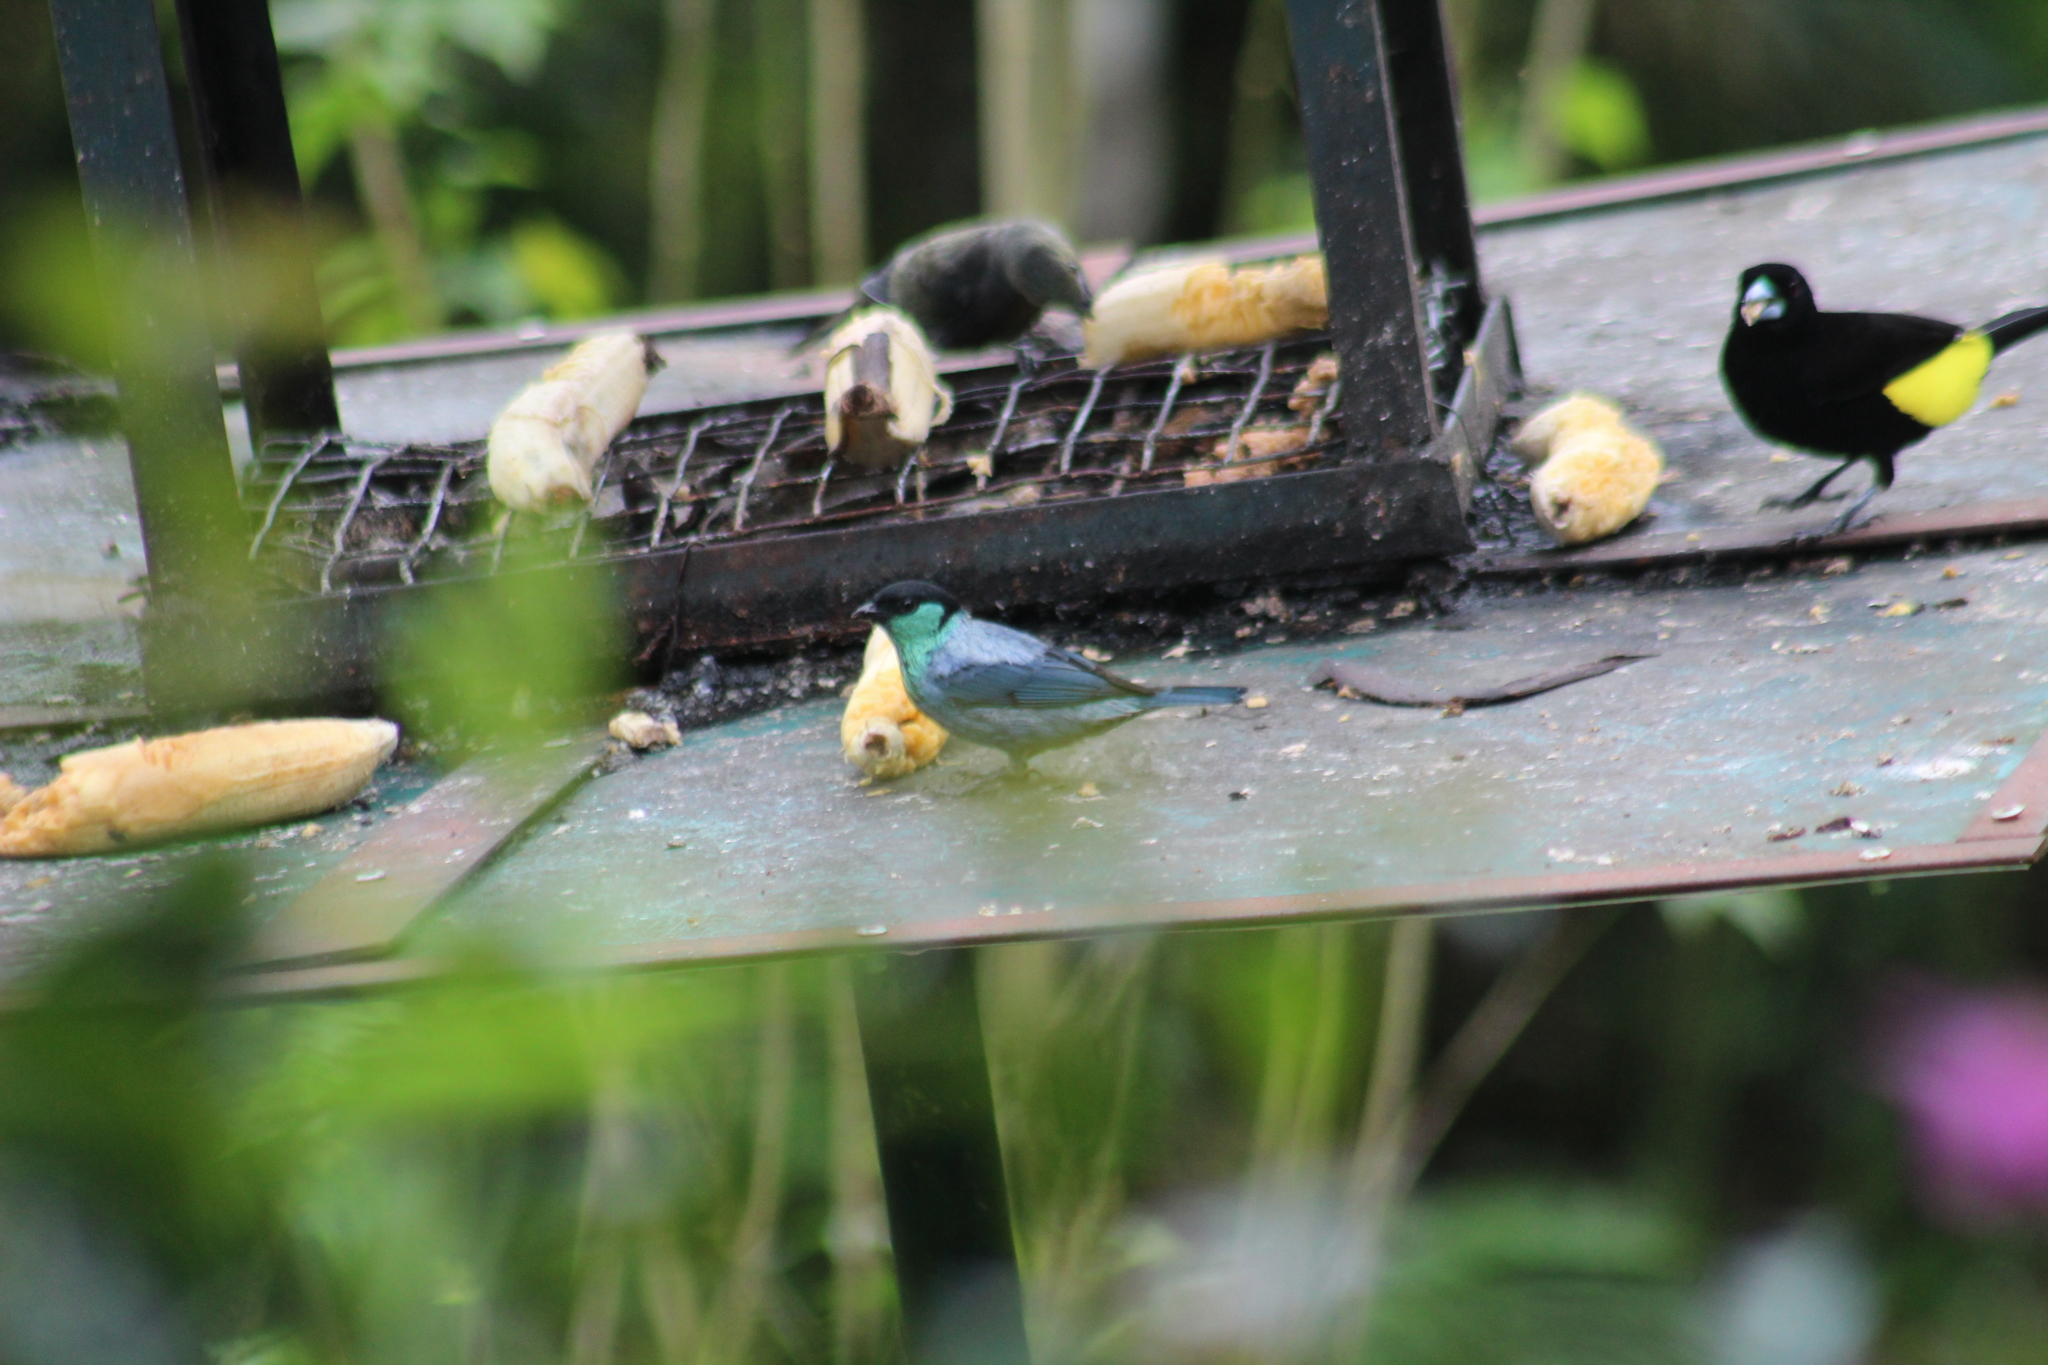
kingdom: Animalia
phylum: Chordata
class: Aves
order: Passeriformes
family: Thraupidae
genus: Stilpnia
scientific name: Stilpnia heinei
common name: Black-capped tanager
